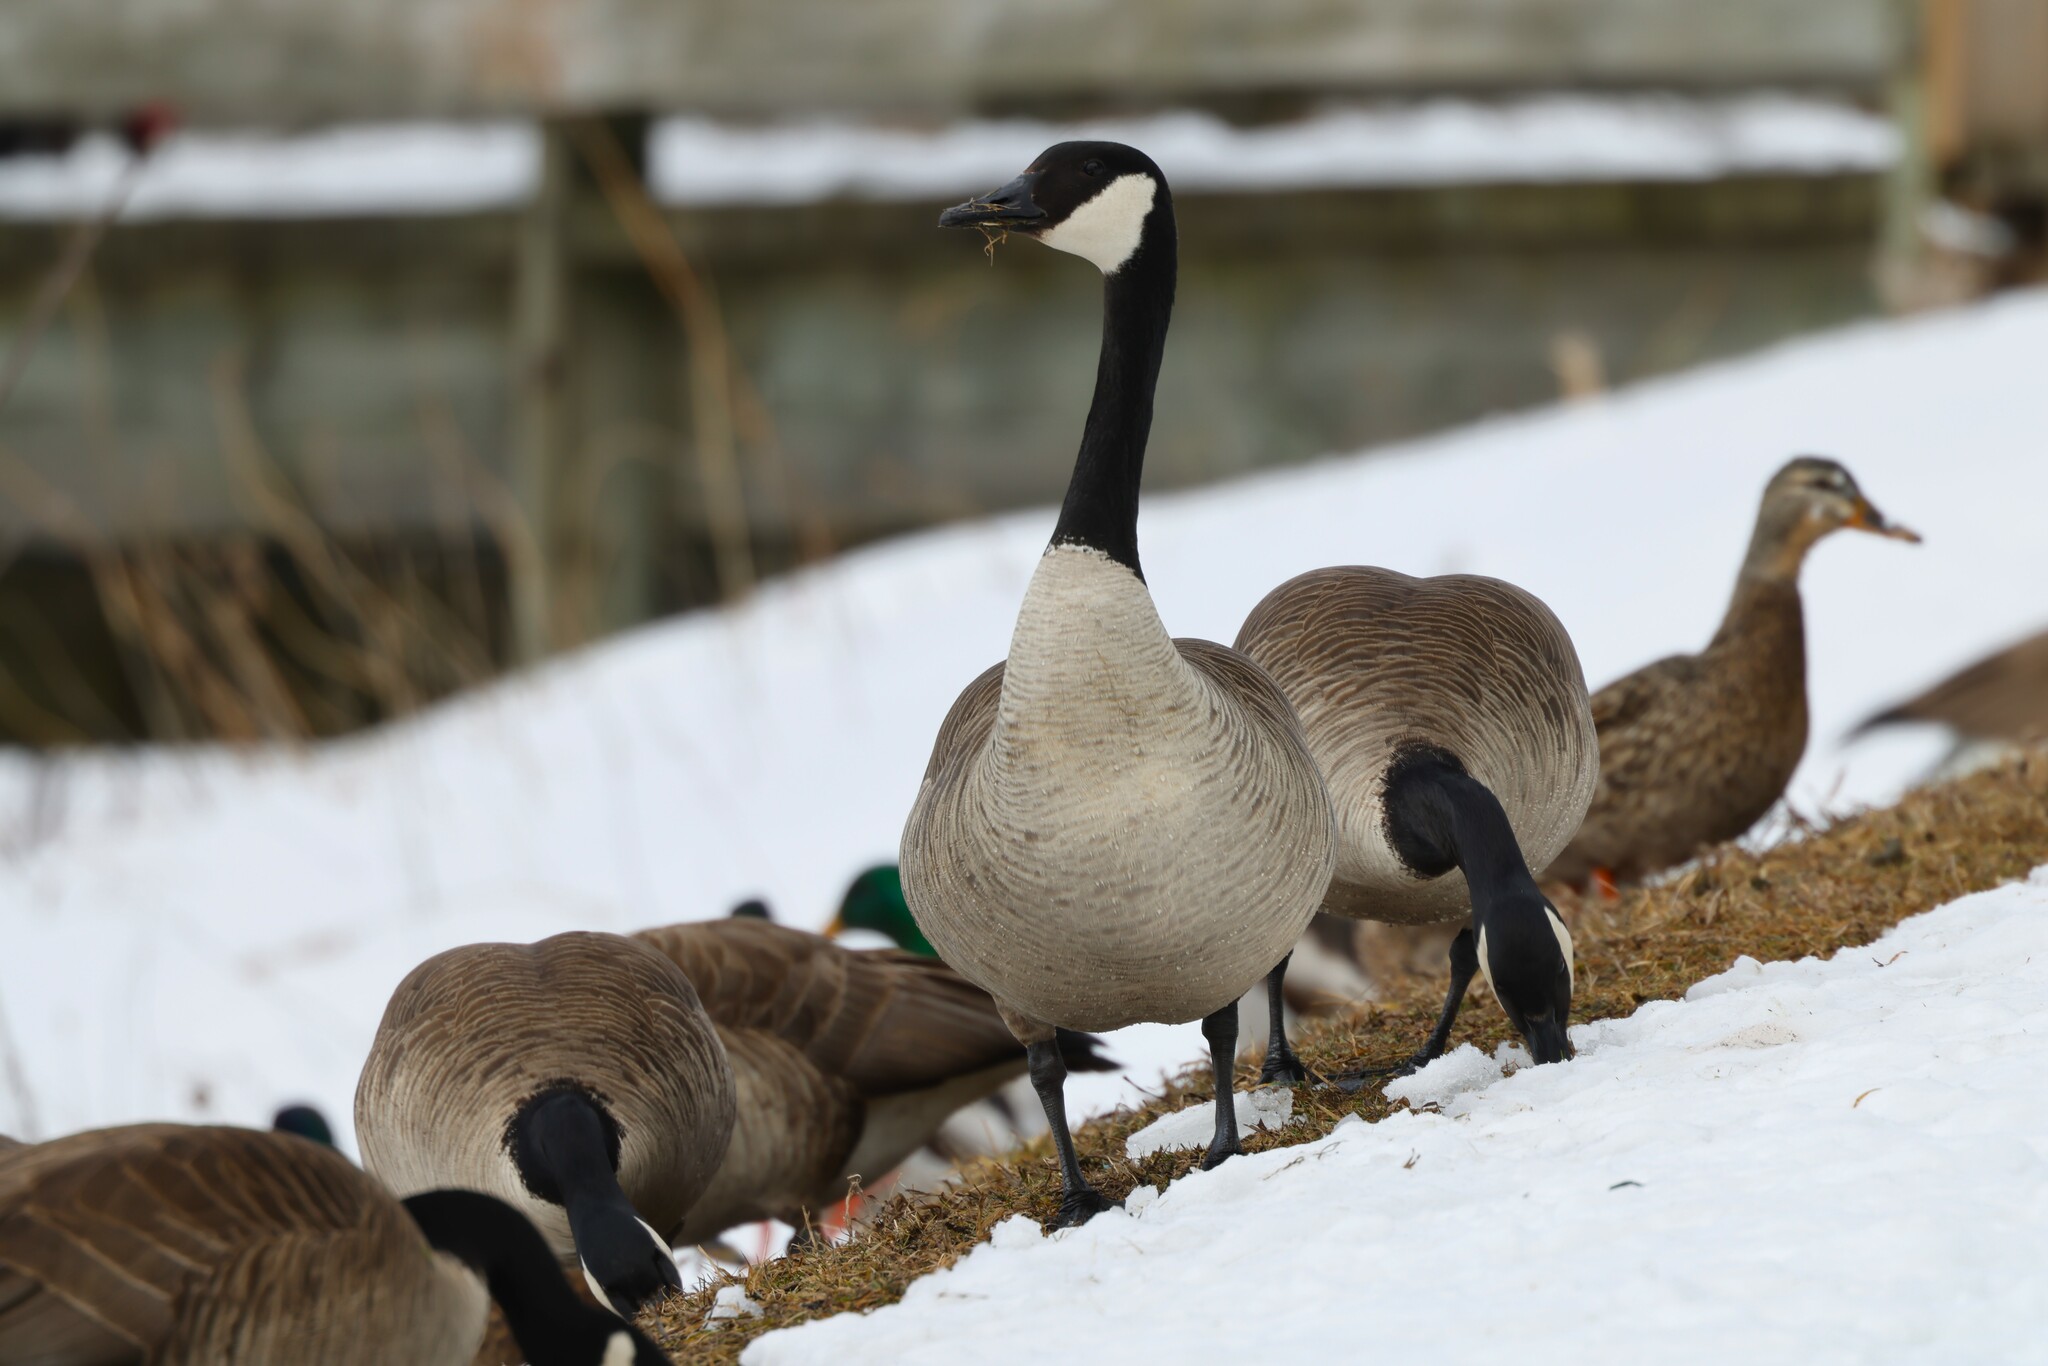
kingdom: Animalia
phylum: Chordata
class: Aves
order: Anseriformes
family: Anatidae
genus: Branta
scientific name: Branta canadensis
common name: Canada goose
